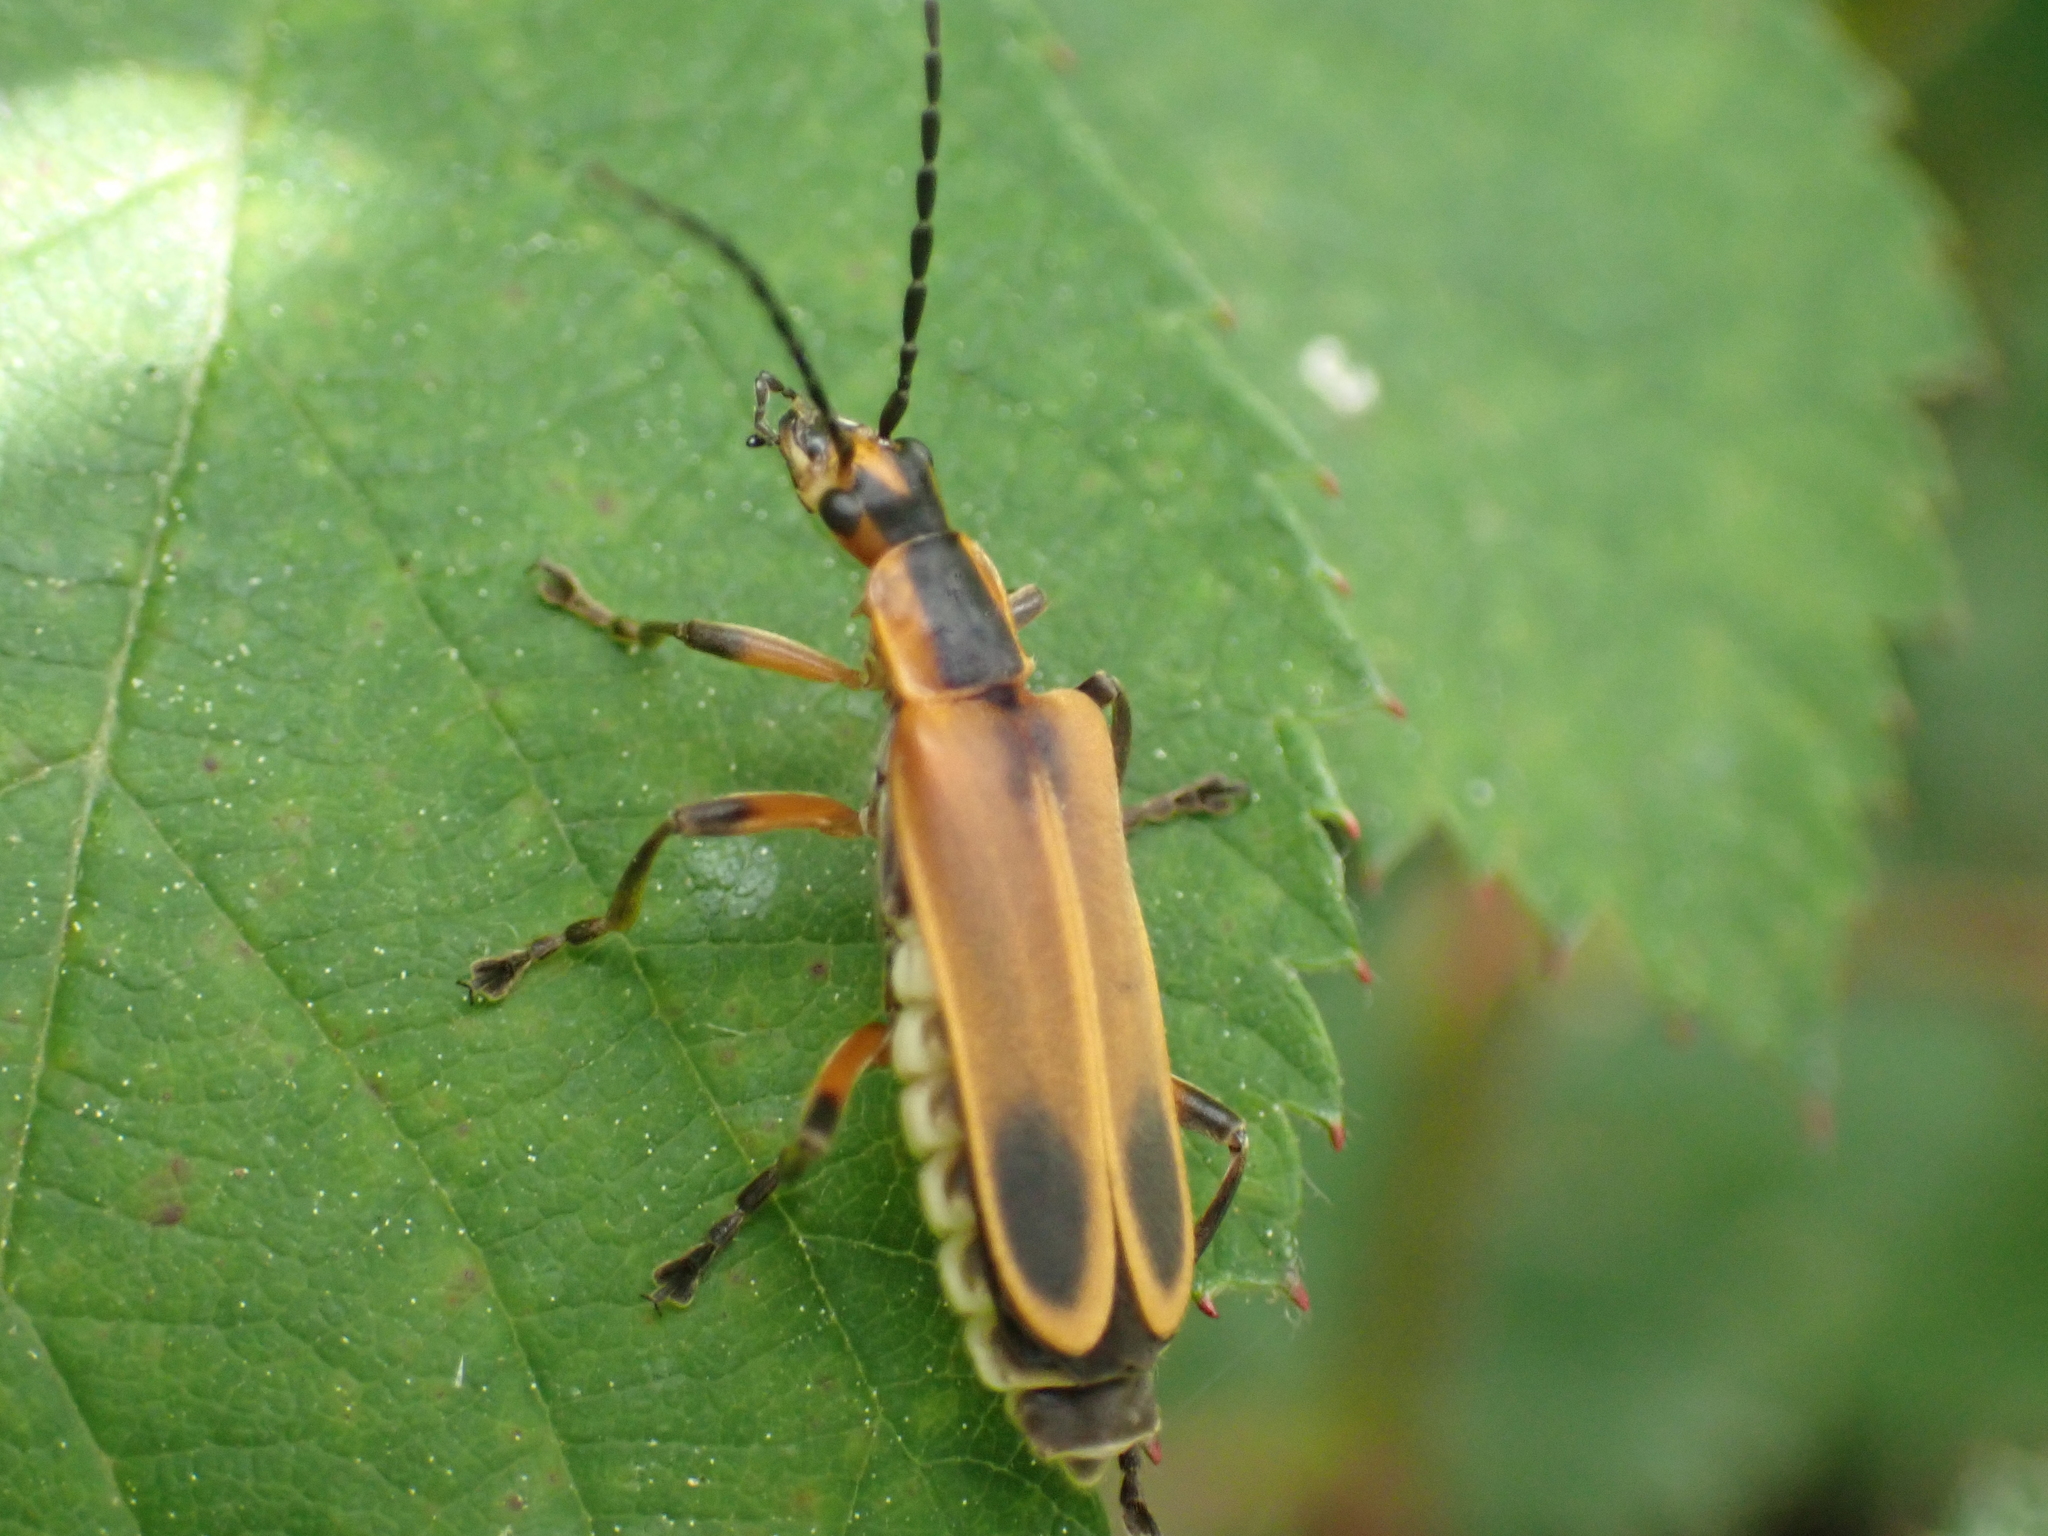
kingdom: Animalia
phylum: Arthropoda
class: Insecta
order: Coleoptera
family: Cantharidae
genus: Chauliognathus
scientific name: Chauliognathus marginatus
